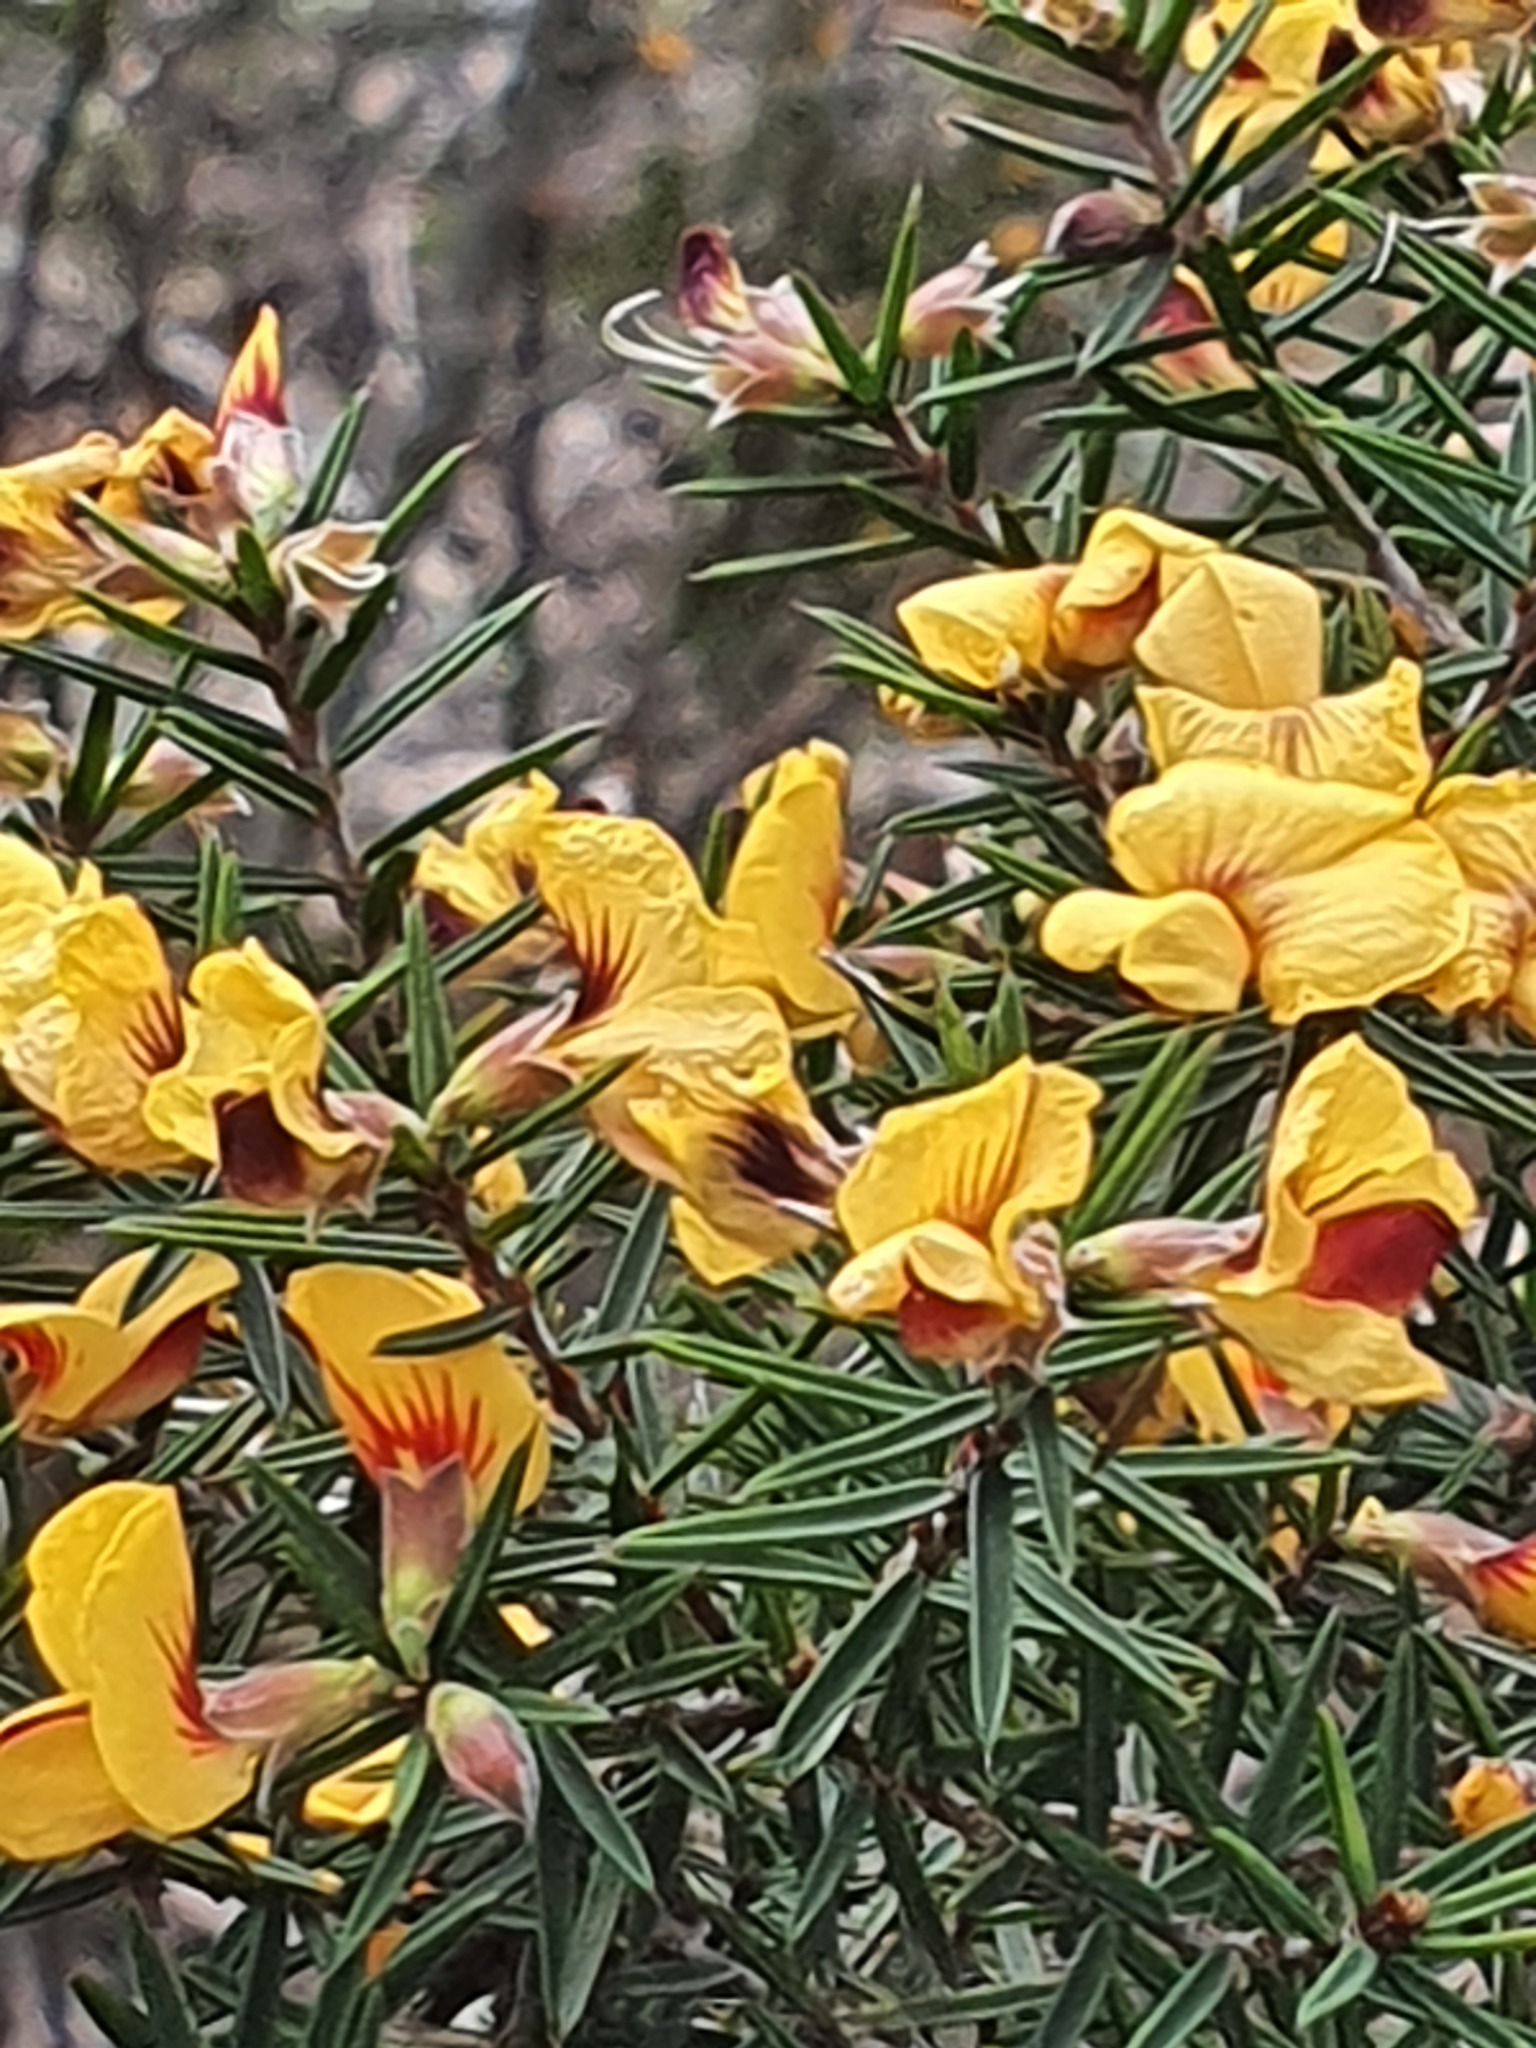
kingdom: Plantae
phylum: Tracheophyta
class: Magnoliopsida
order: Fabales
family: Fabaceae
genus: Pultenaea
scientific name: Pultenaea juniperina
